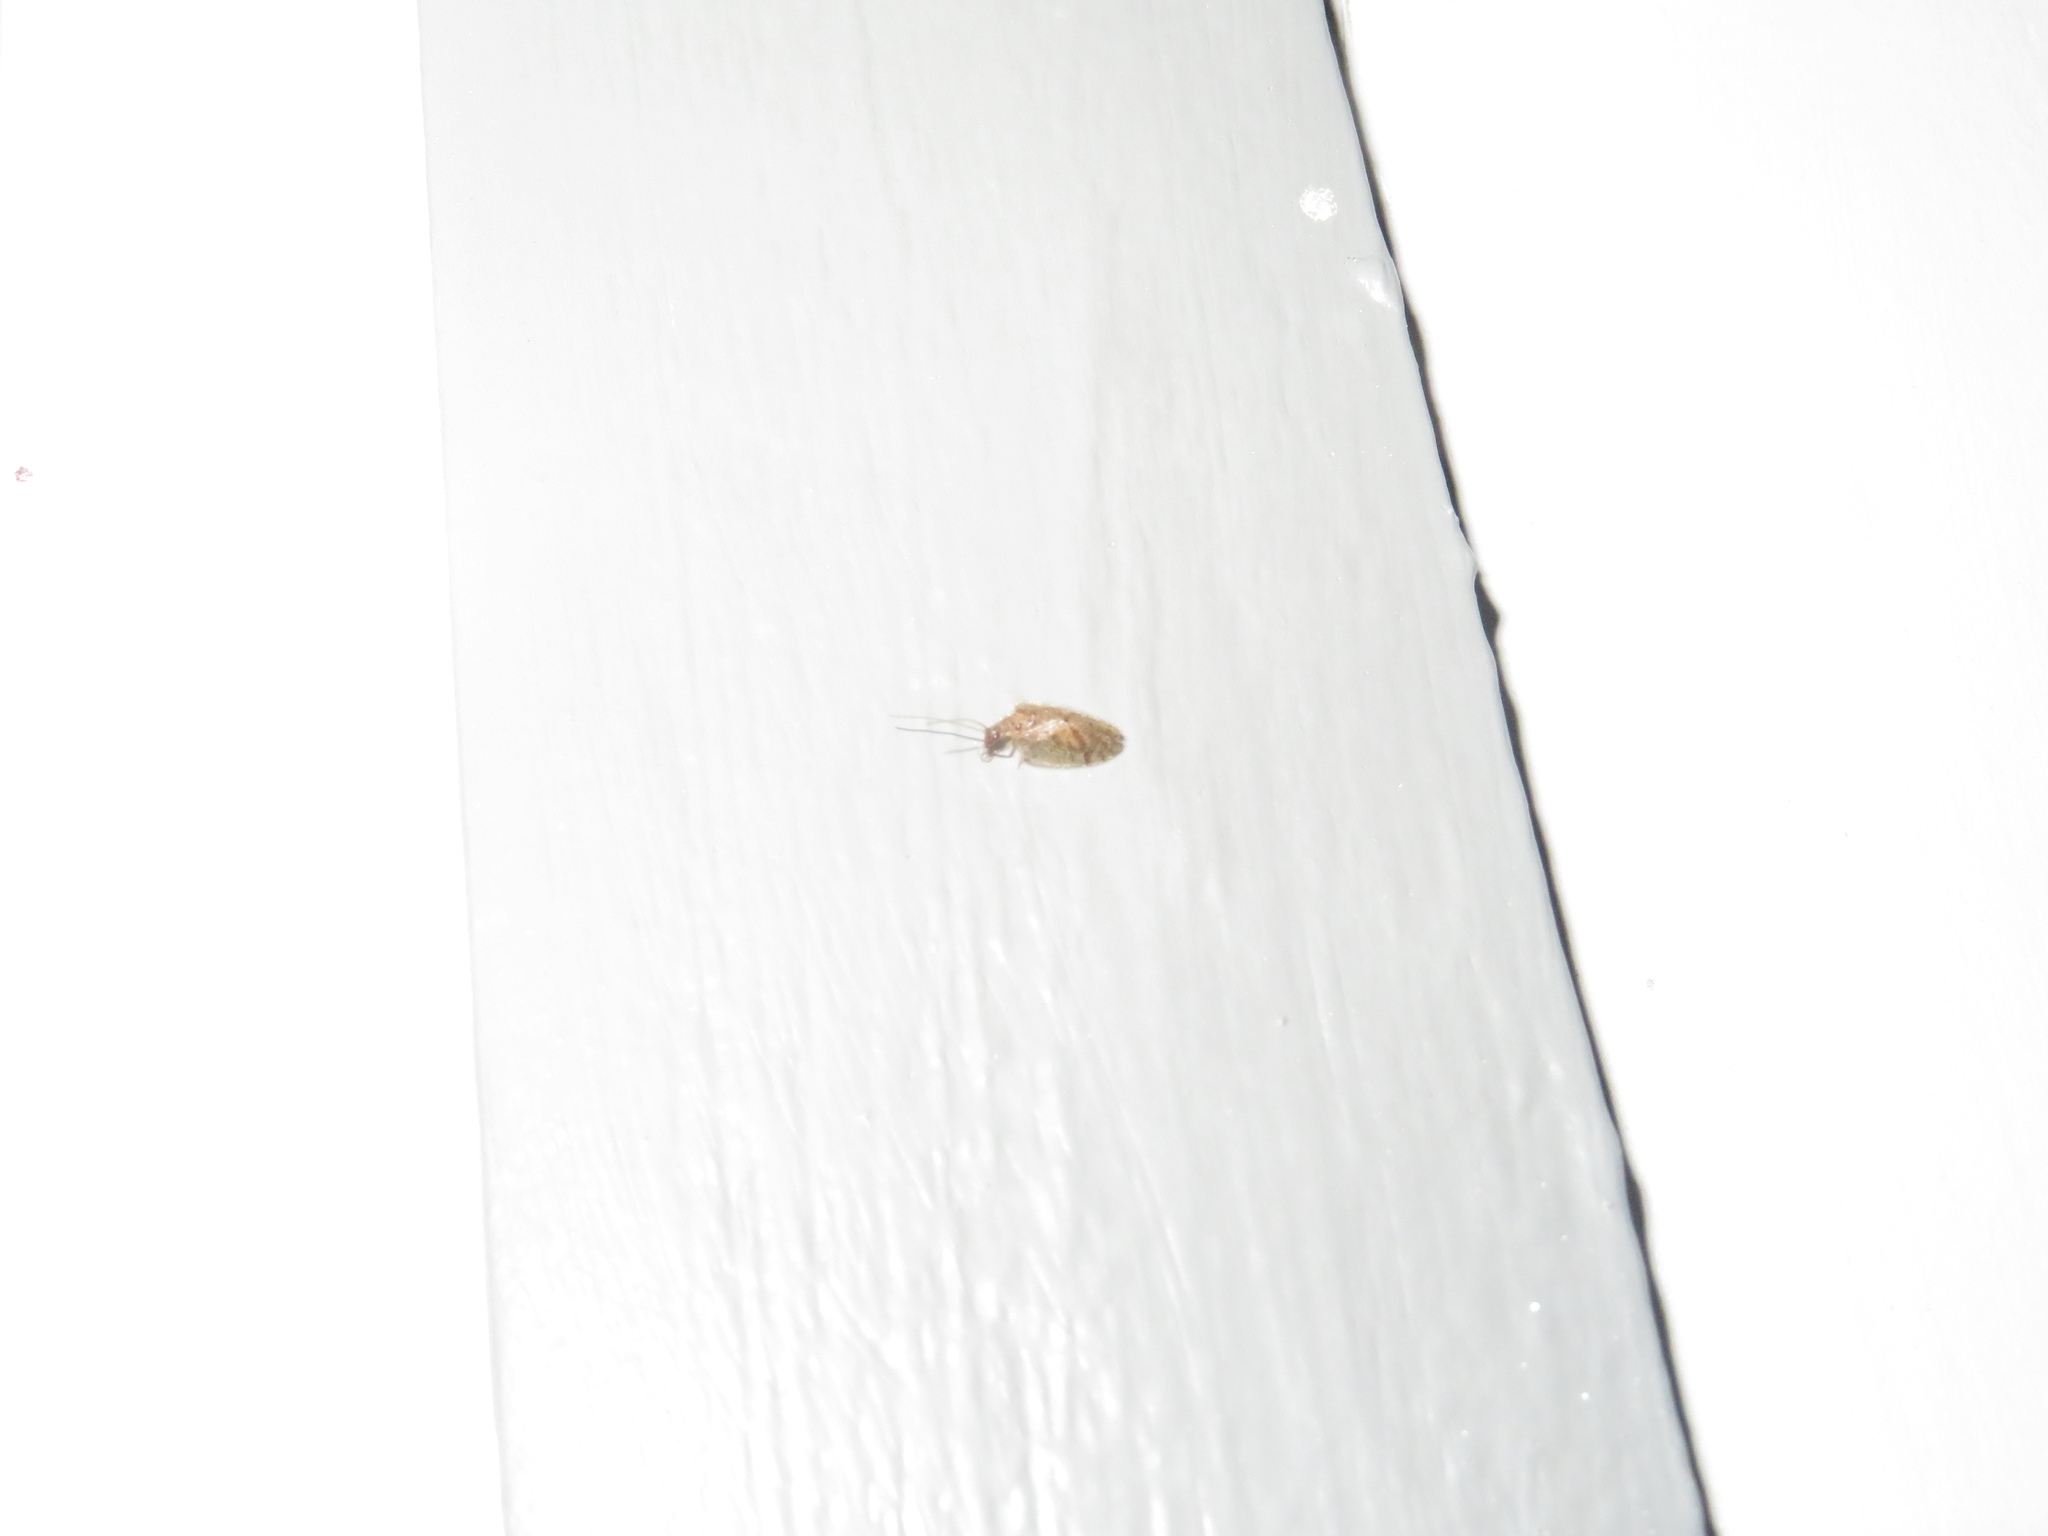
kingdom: Animalia
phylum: Arthropoda
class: Insecta
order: Neuroptera
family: Hemerobiidae
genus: Psectra
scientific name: Psectra nakaharai
